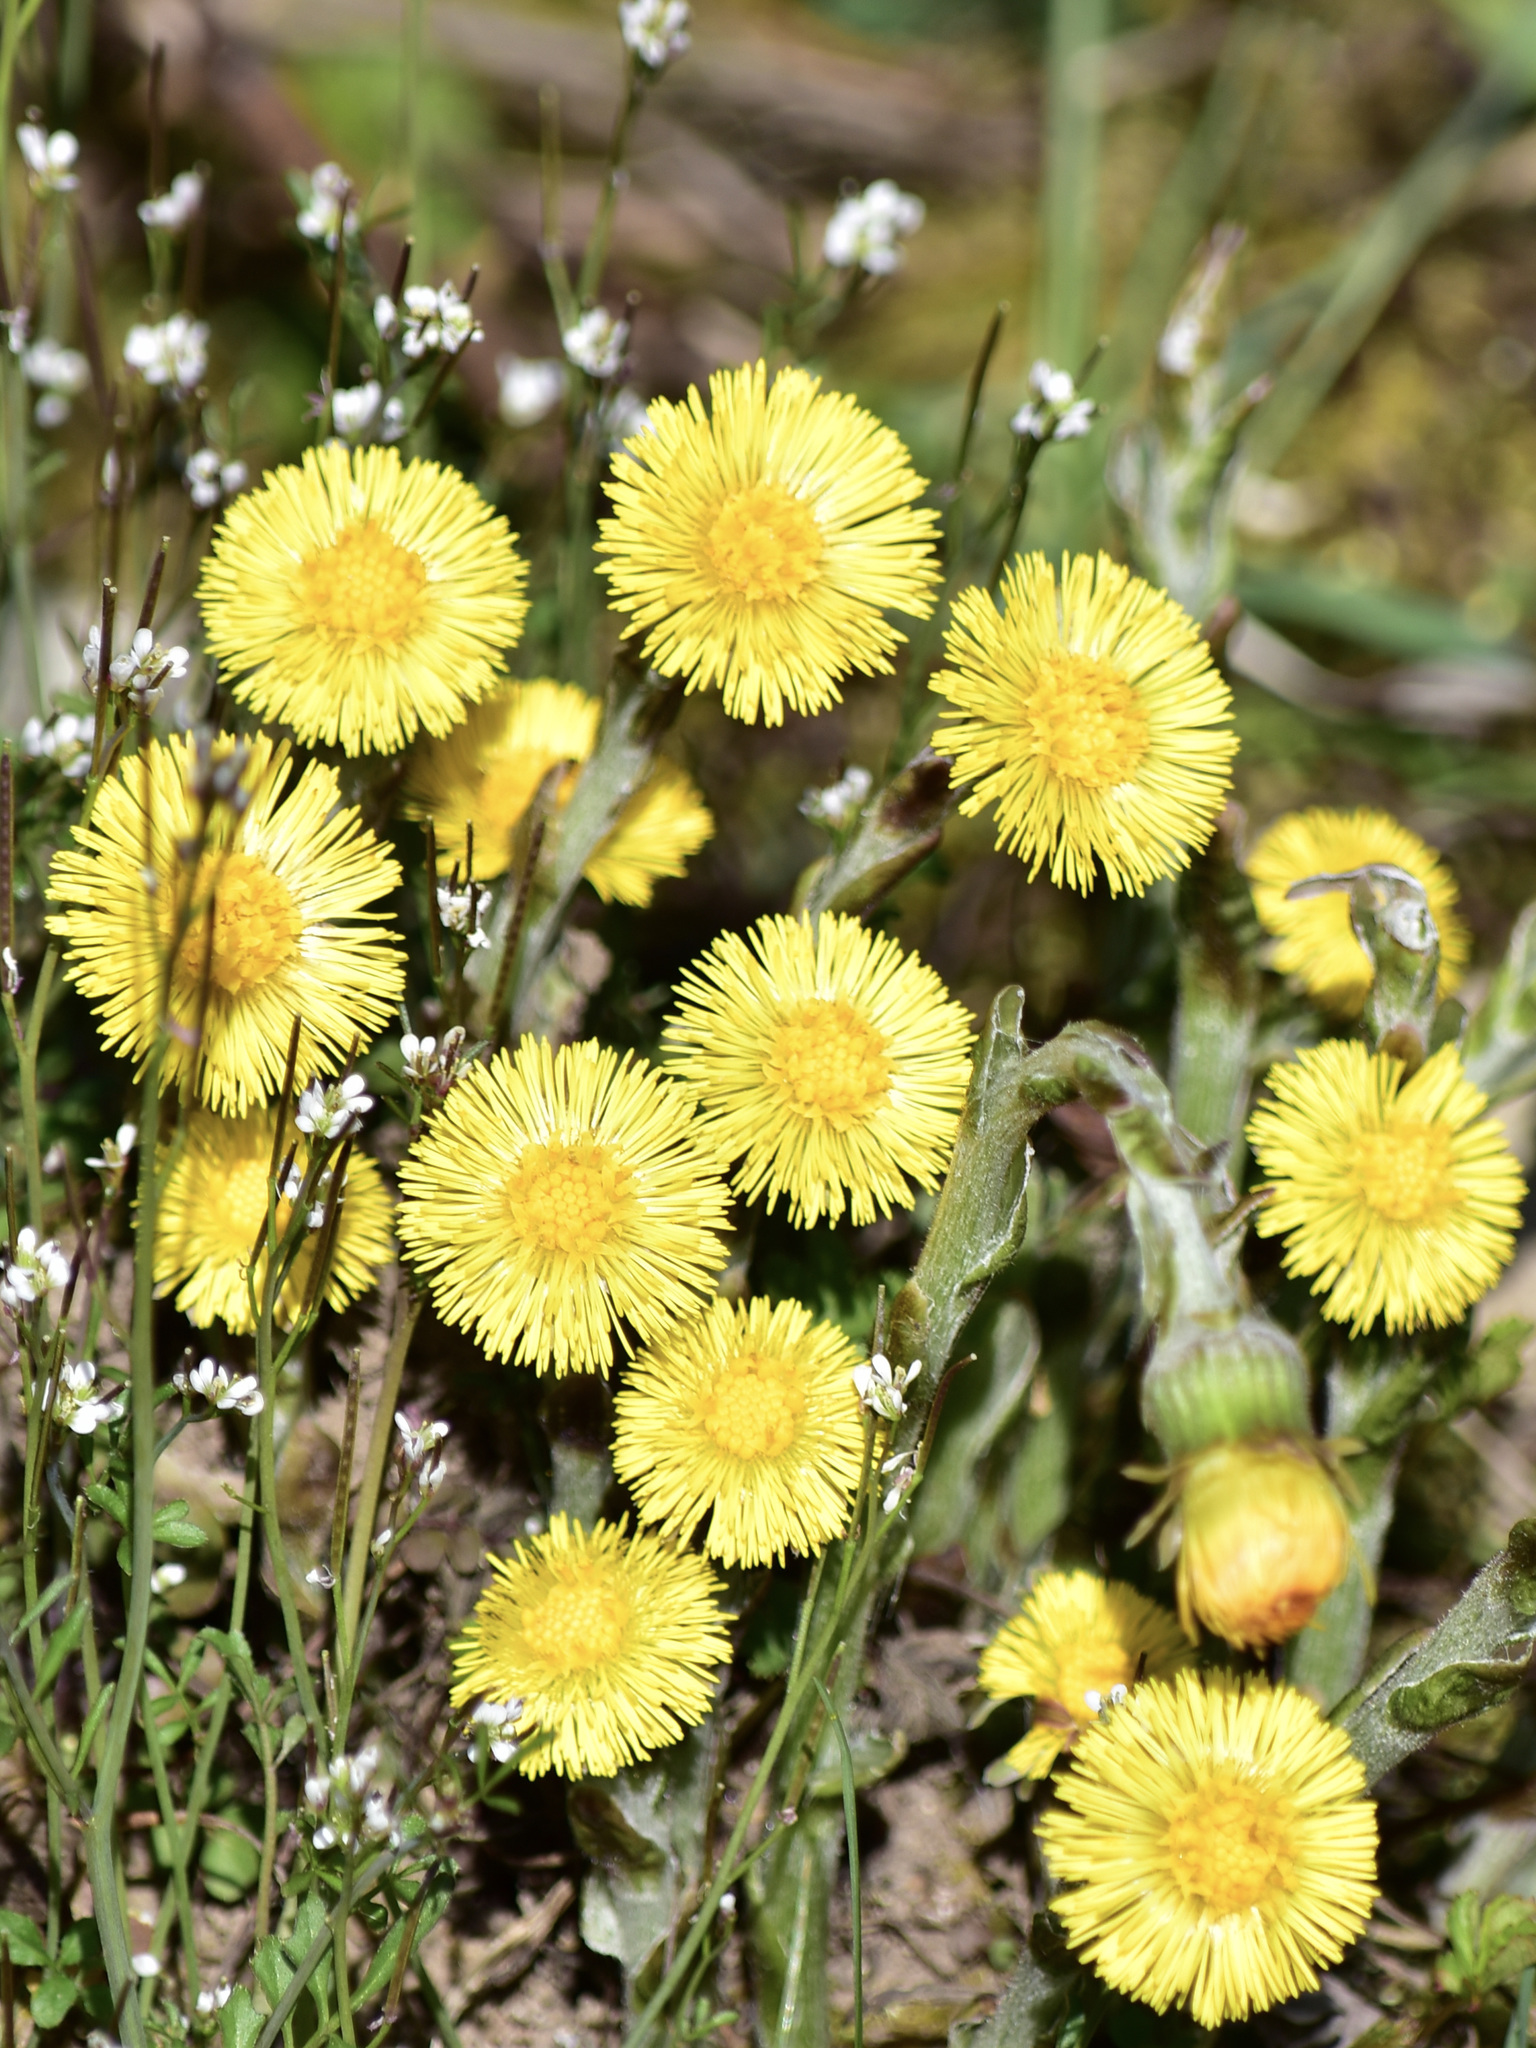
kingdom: Plantae
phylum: Tracheophyta
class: Magnoliopsida
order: Asterales
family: Asteraceae
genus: Tussilago
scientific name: Tussilago farfara
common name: Coltsfoot
